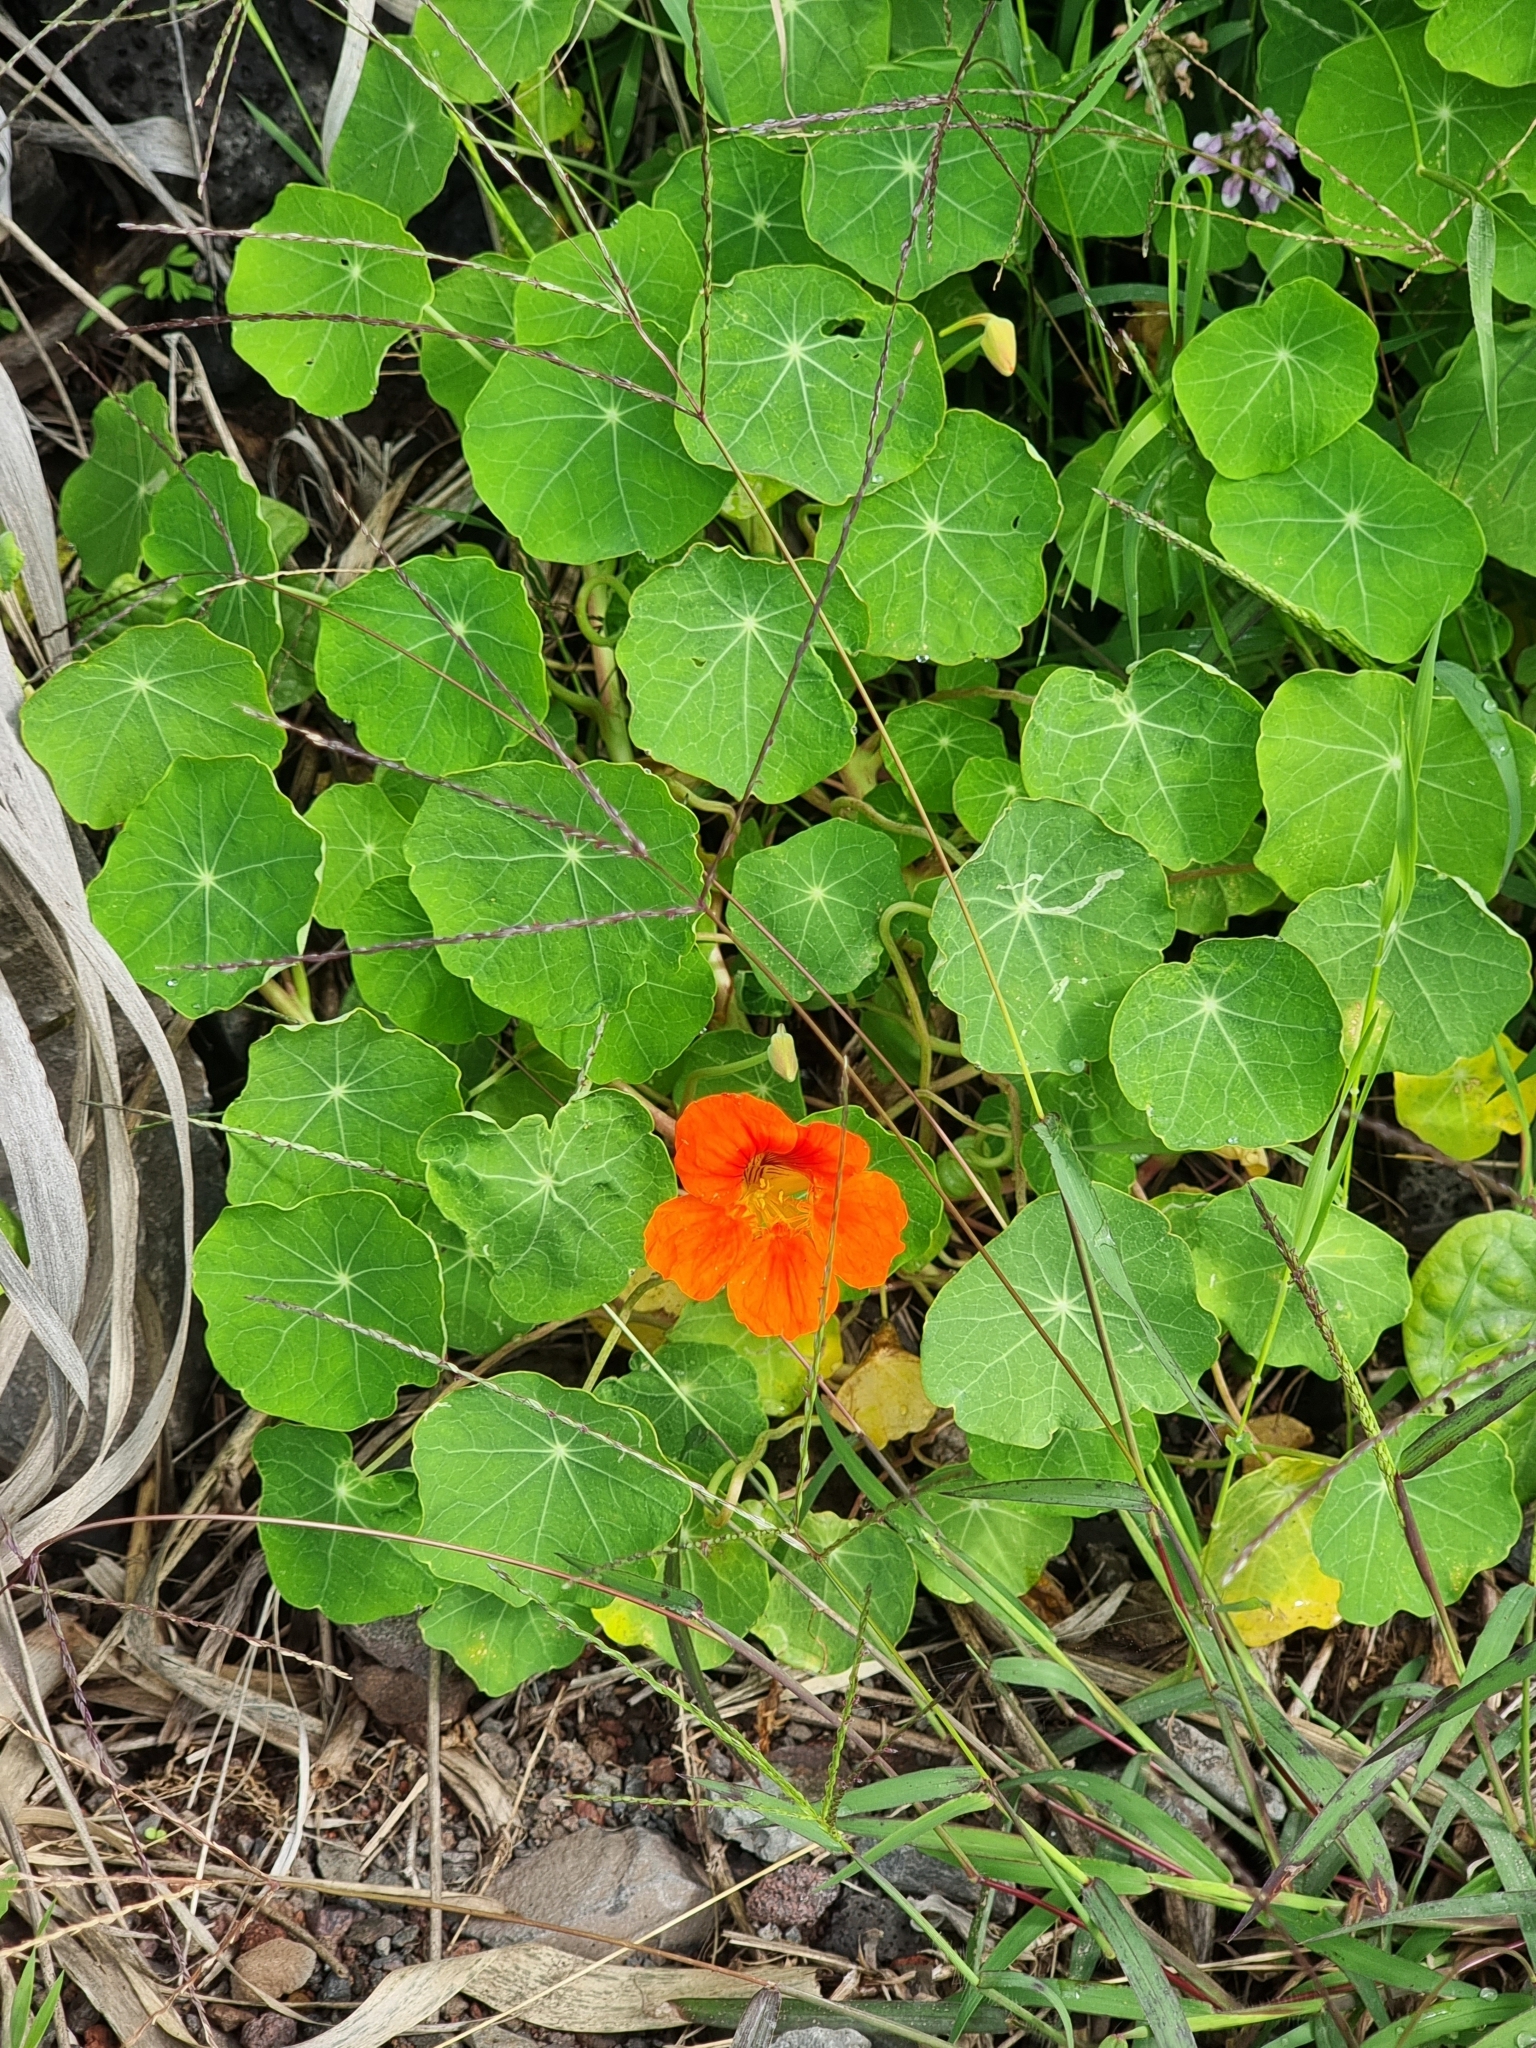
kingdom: Plantae
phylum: Tracheophyta
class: Magnoliopsida
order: Brassicales
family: Tropaeolaceae
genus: Tropaeolum
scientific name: Tropaeolum majus
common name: Nasturtium
